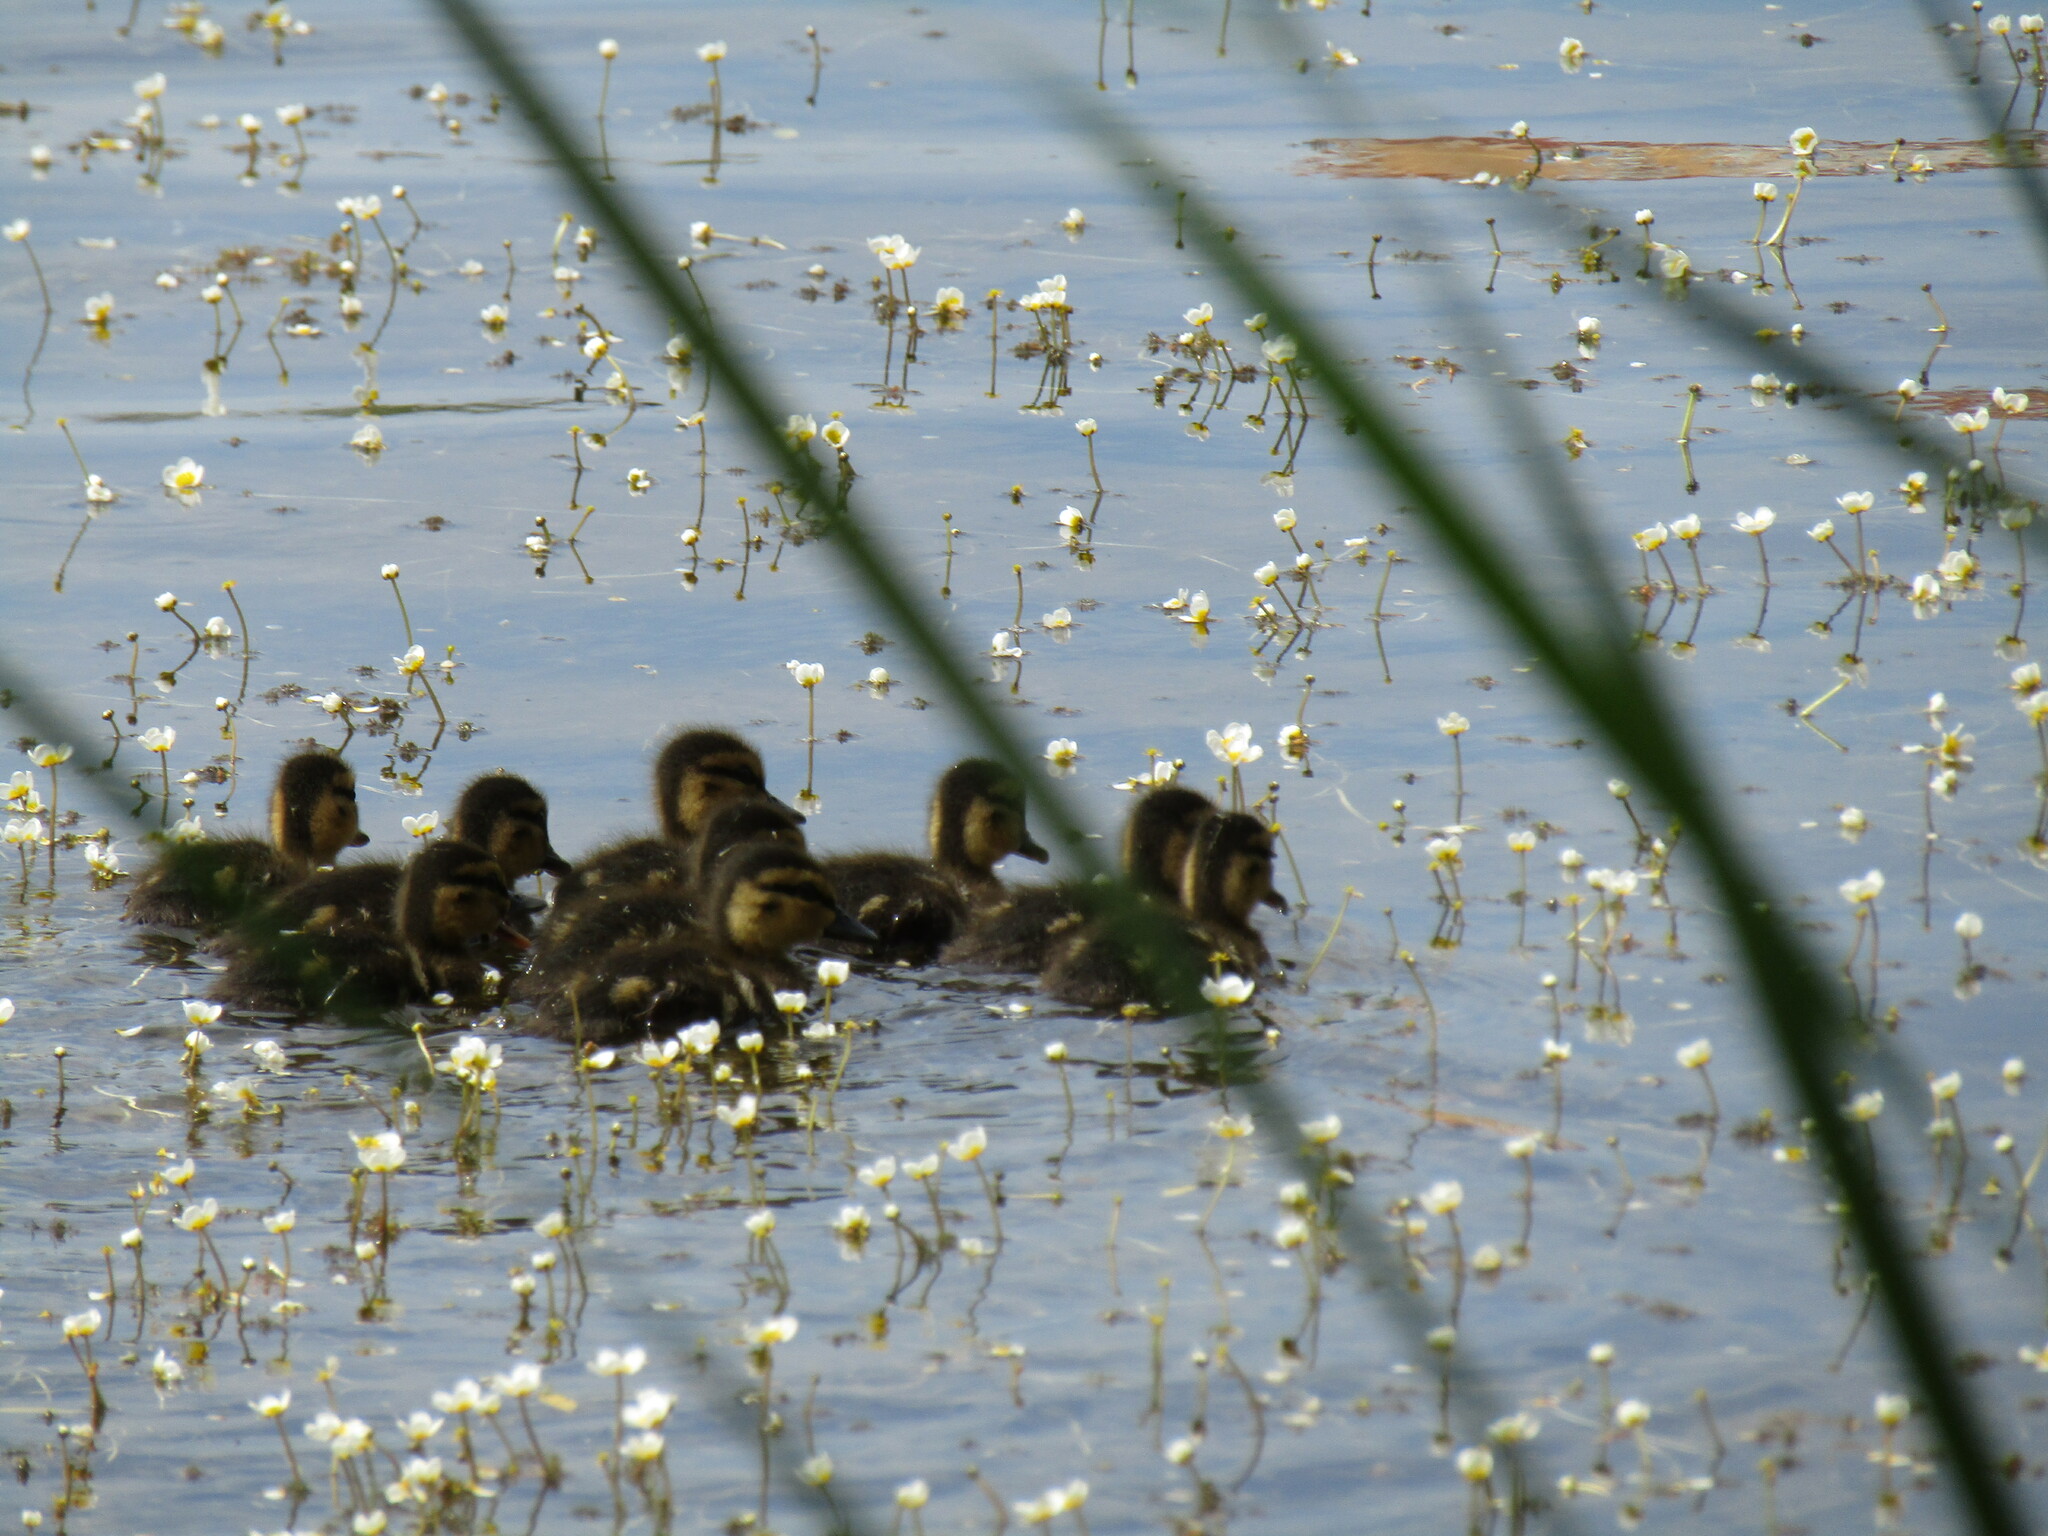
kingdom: Animalia
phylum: Chordata
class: Aves
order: Anseriformes
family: Anatidae
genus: Anas
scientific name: Anas platyrhynchos
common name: Mallard
